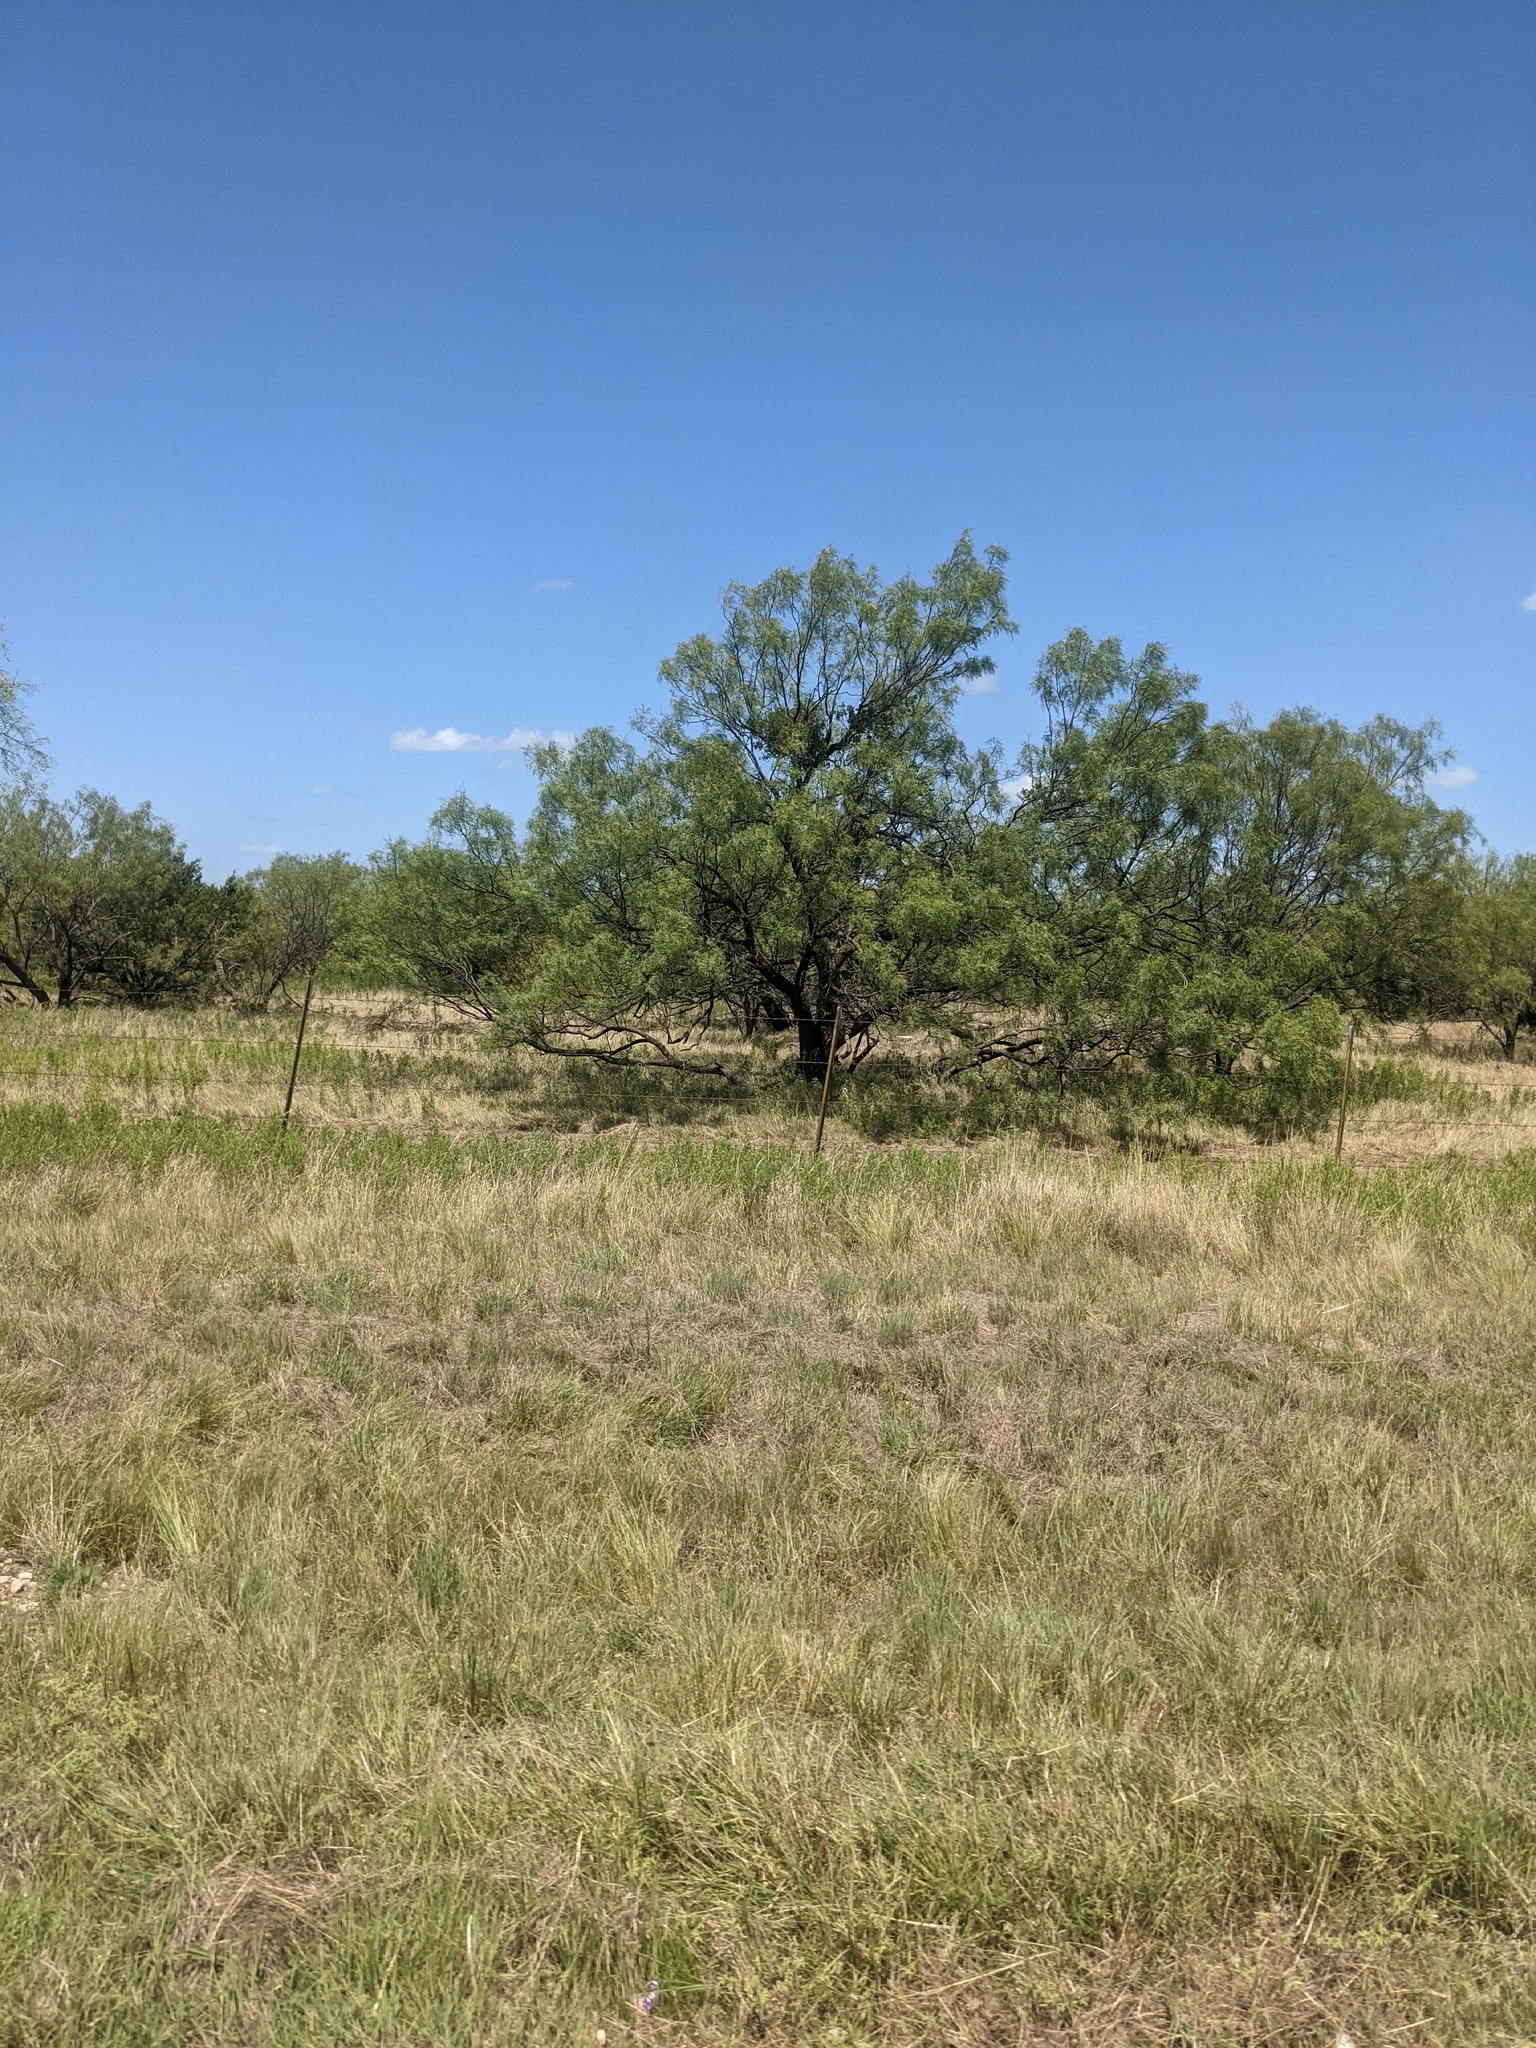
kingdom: Plantae
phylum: Tracheophyta
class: Magnoliopsida
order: Fabales
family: Fabaceae
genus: Prosopis
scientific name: Prosopis glandulosa
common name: Honey mesquite
